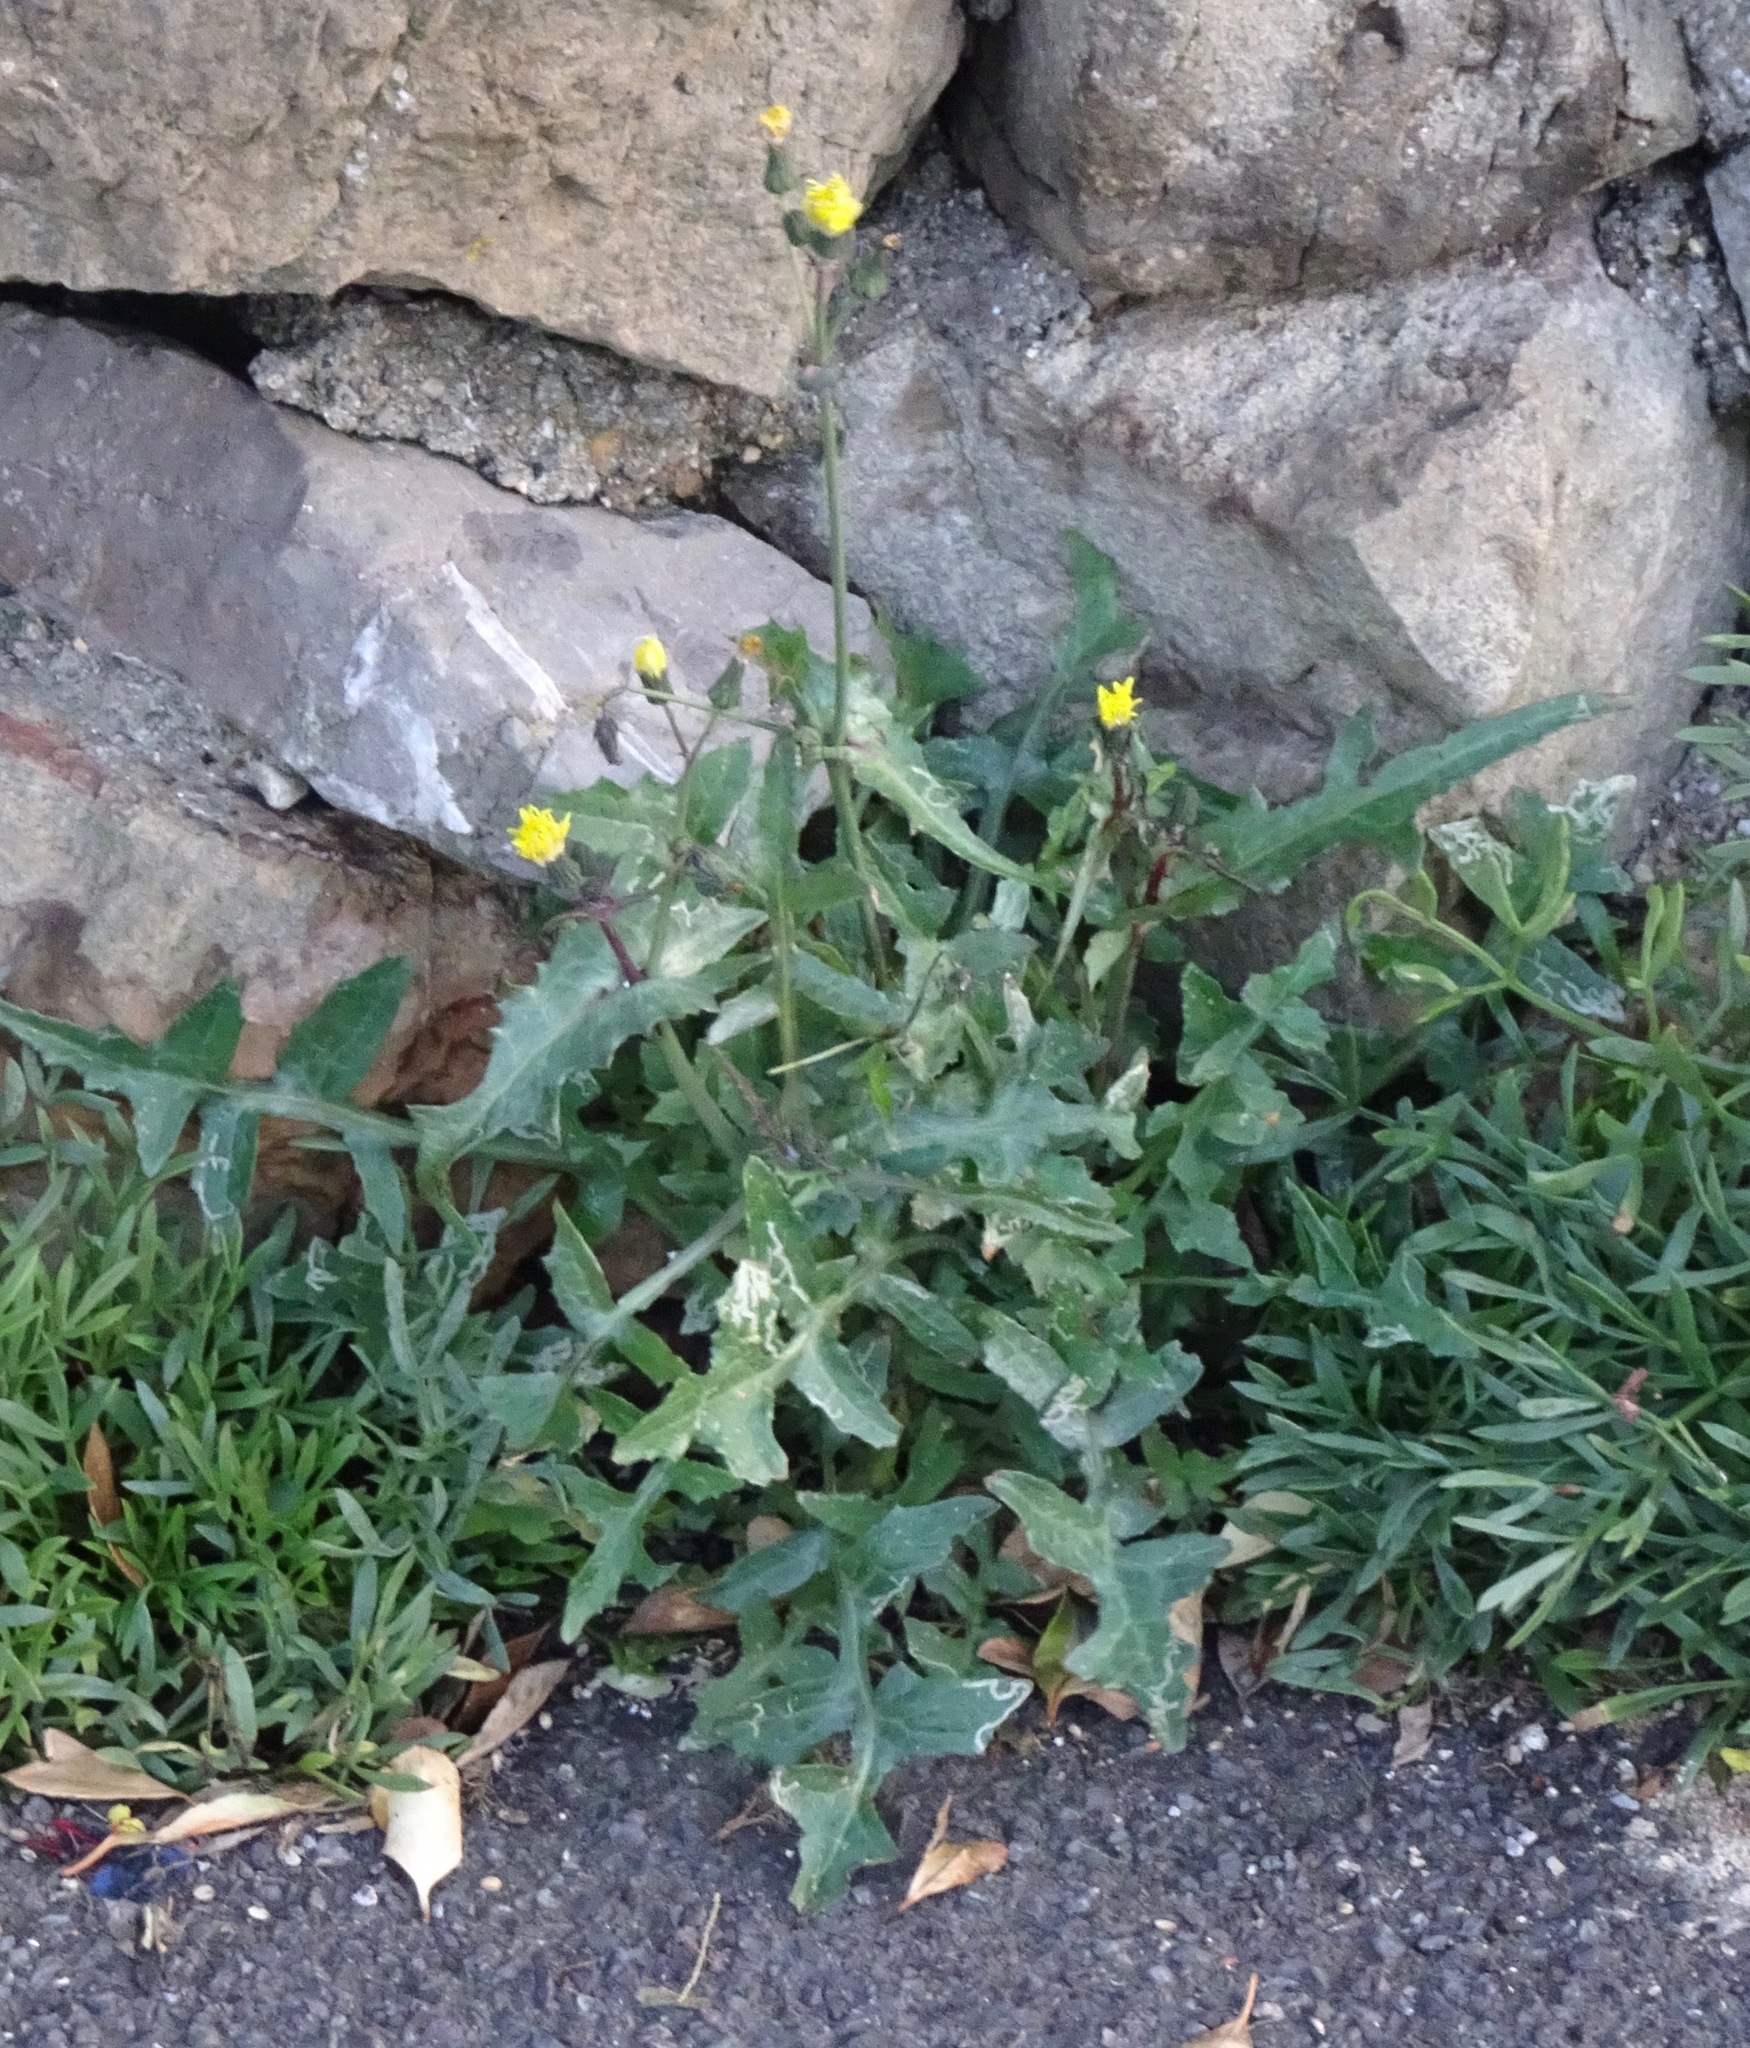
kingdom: Plantae
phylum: Tracheophyta
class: Magnoliopsida
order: Asterales
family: Asteraceae
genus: Sonchus
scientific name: Sonchus oleraceus
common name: Common sowthistle
